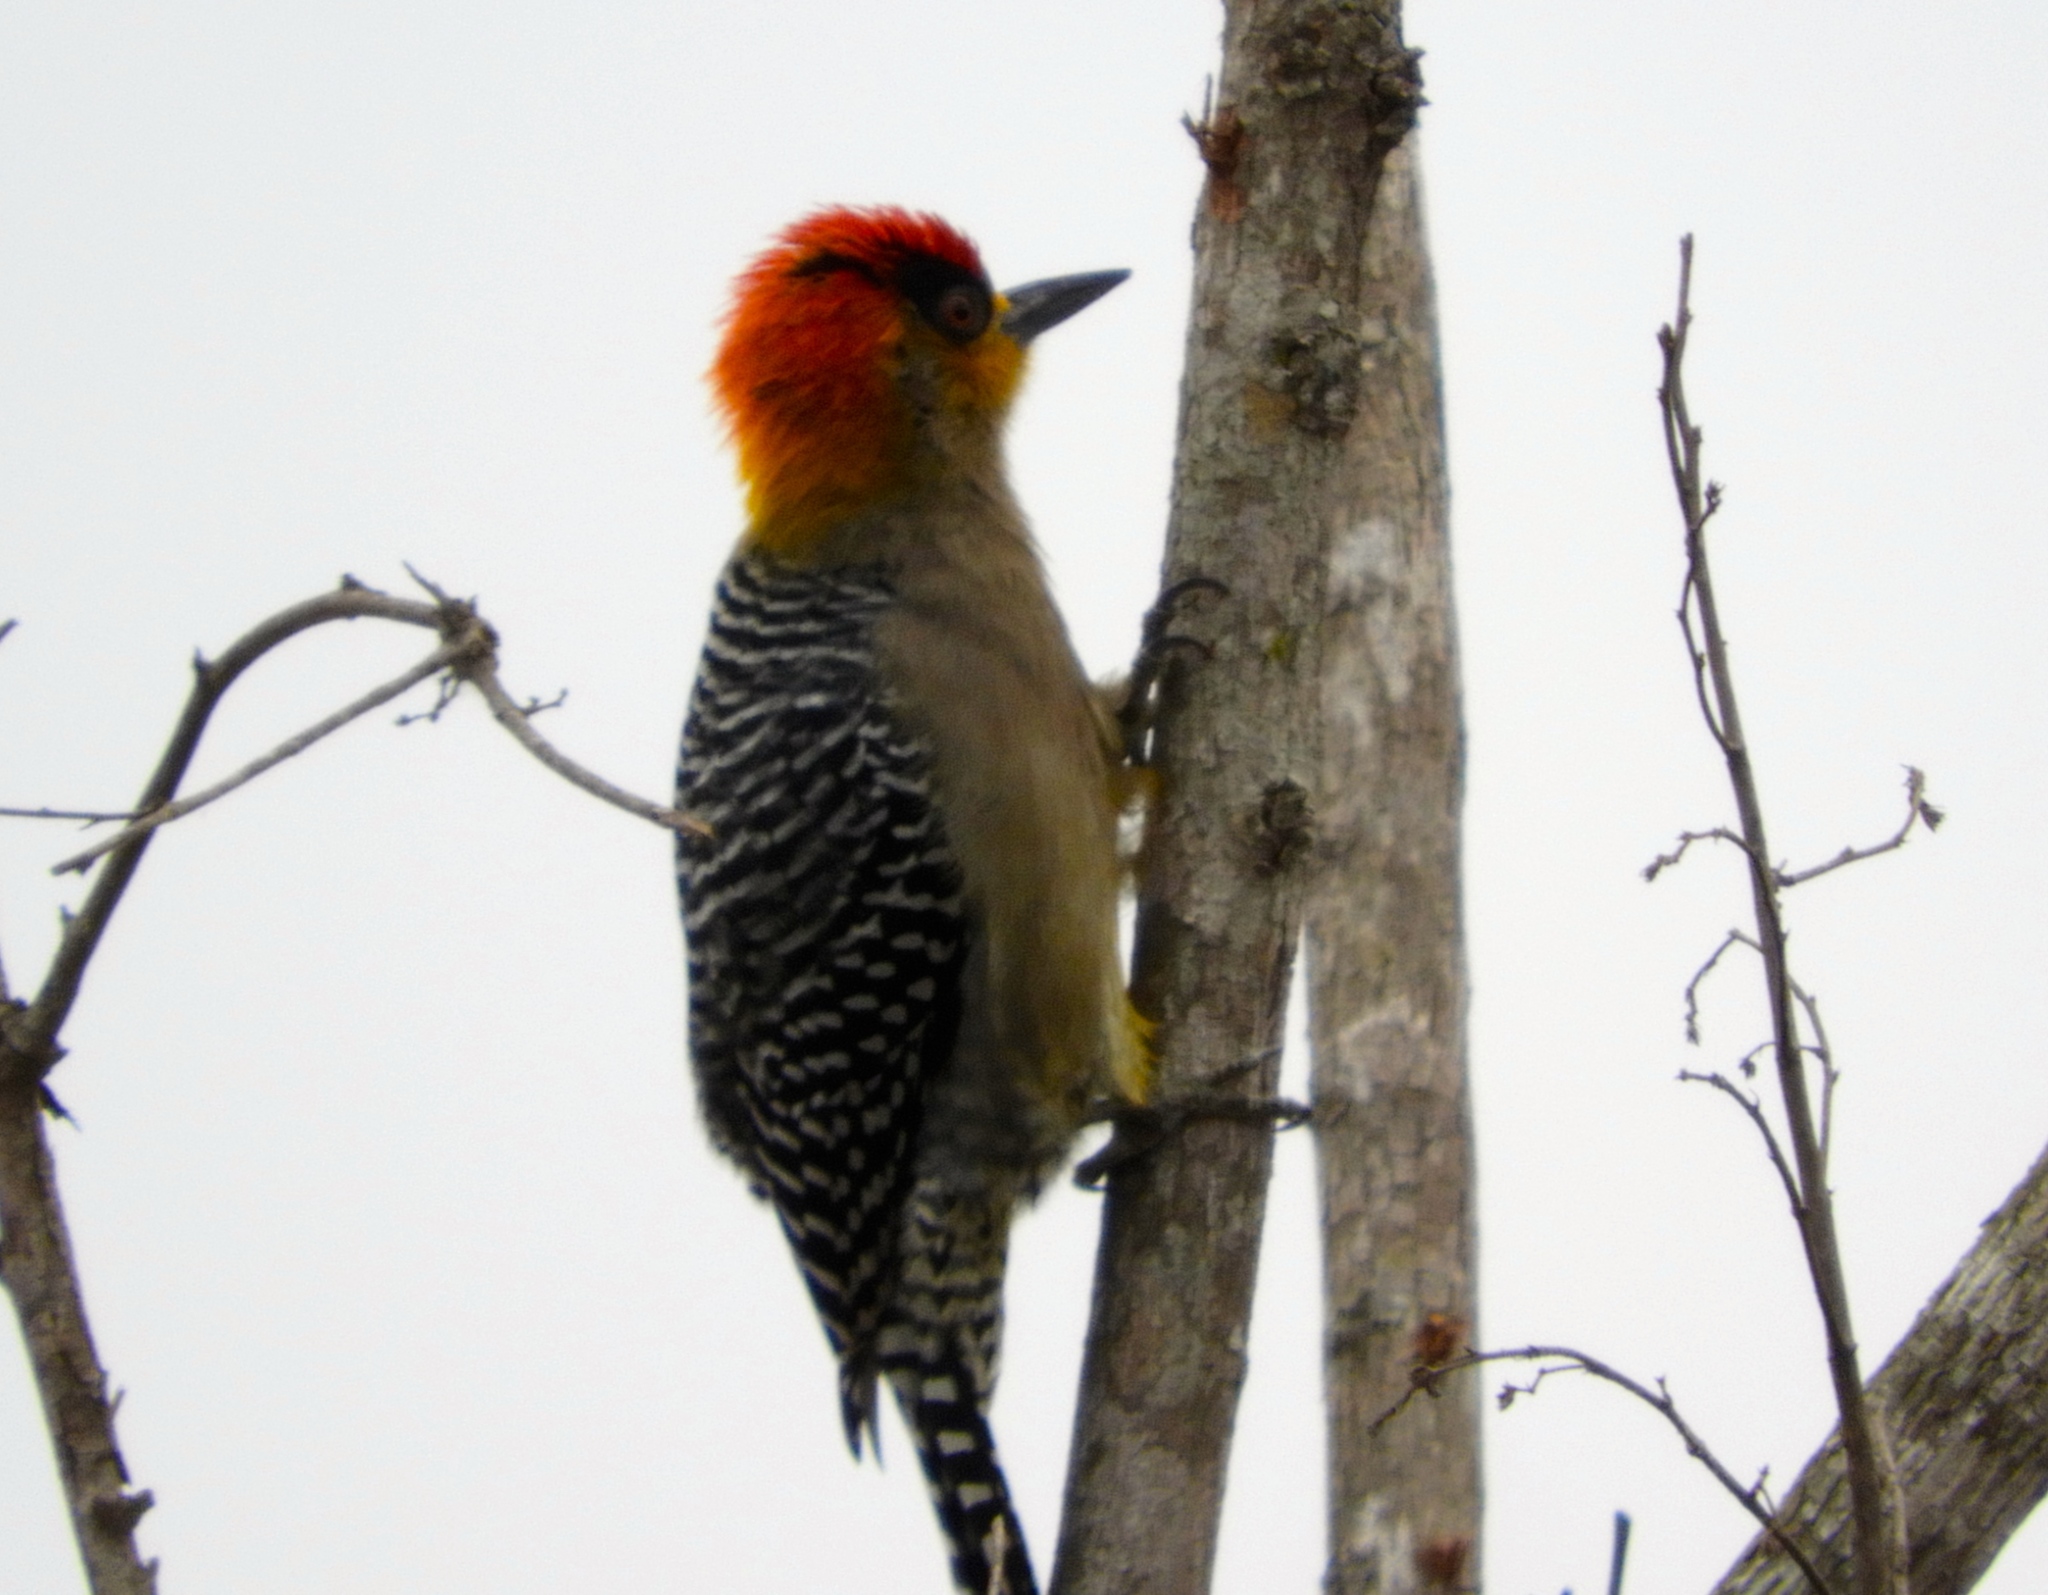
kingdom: Animalia
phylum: Chordata
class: Aves
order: Piciformes
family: Picidae
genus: Melanerpes
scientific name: Melanerpes chrysogenys
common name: Golden-cheeked woodpecker
